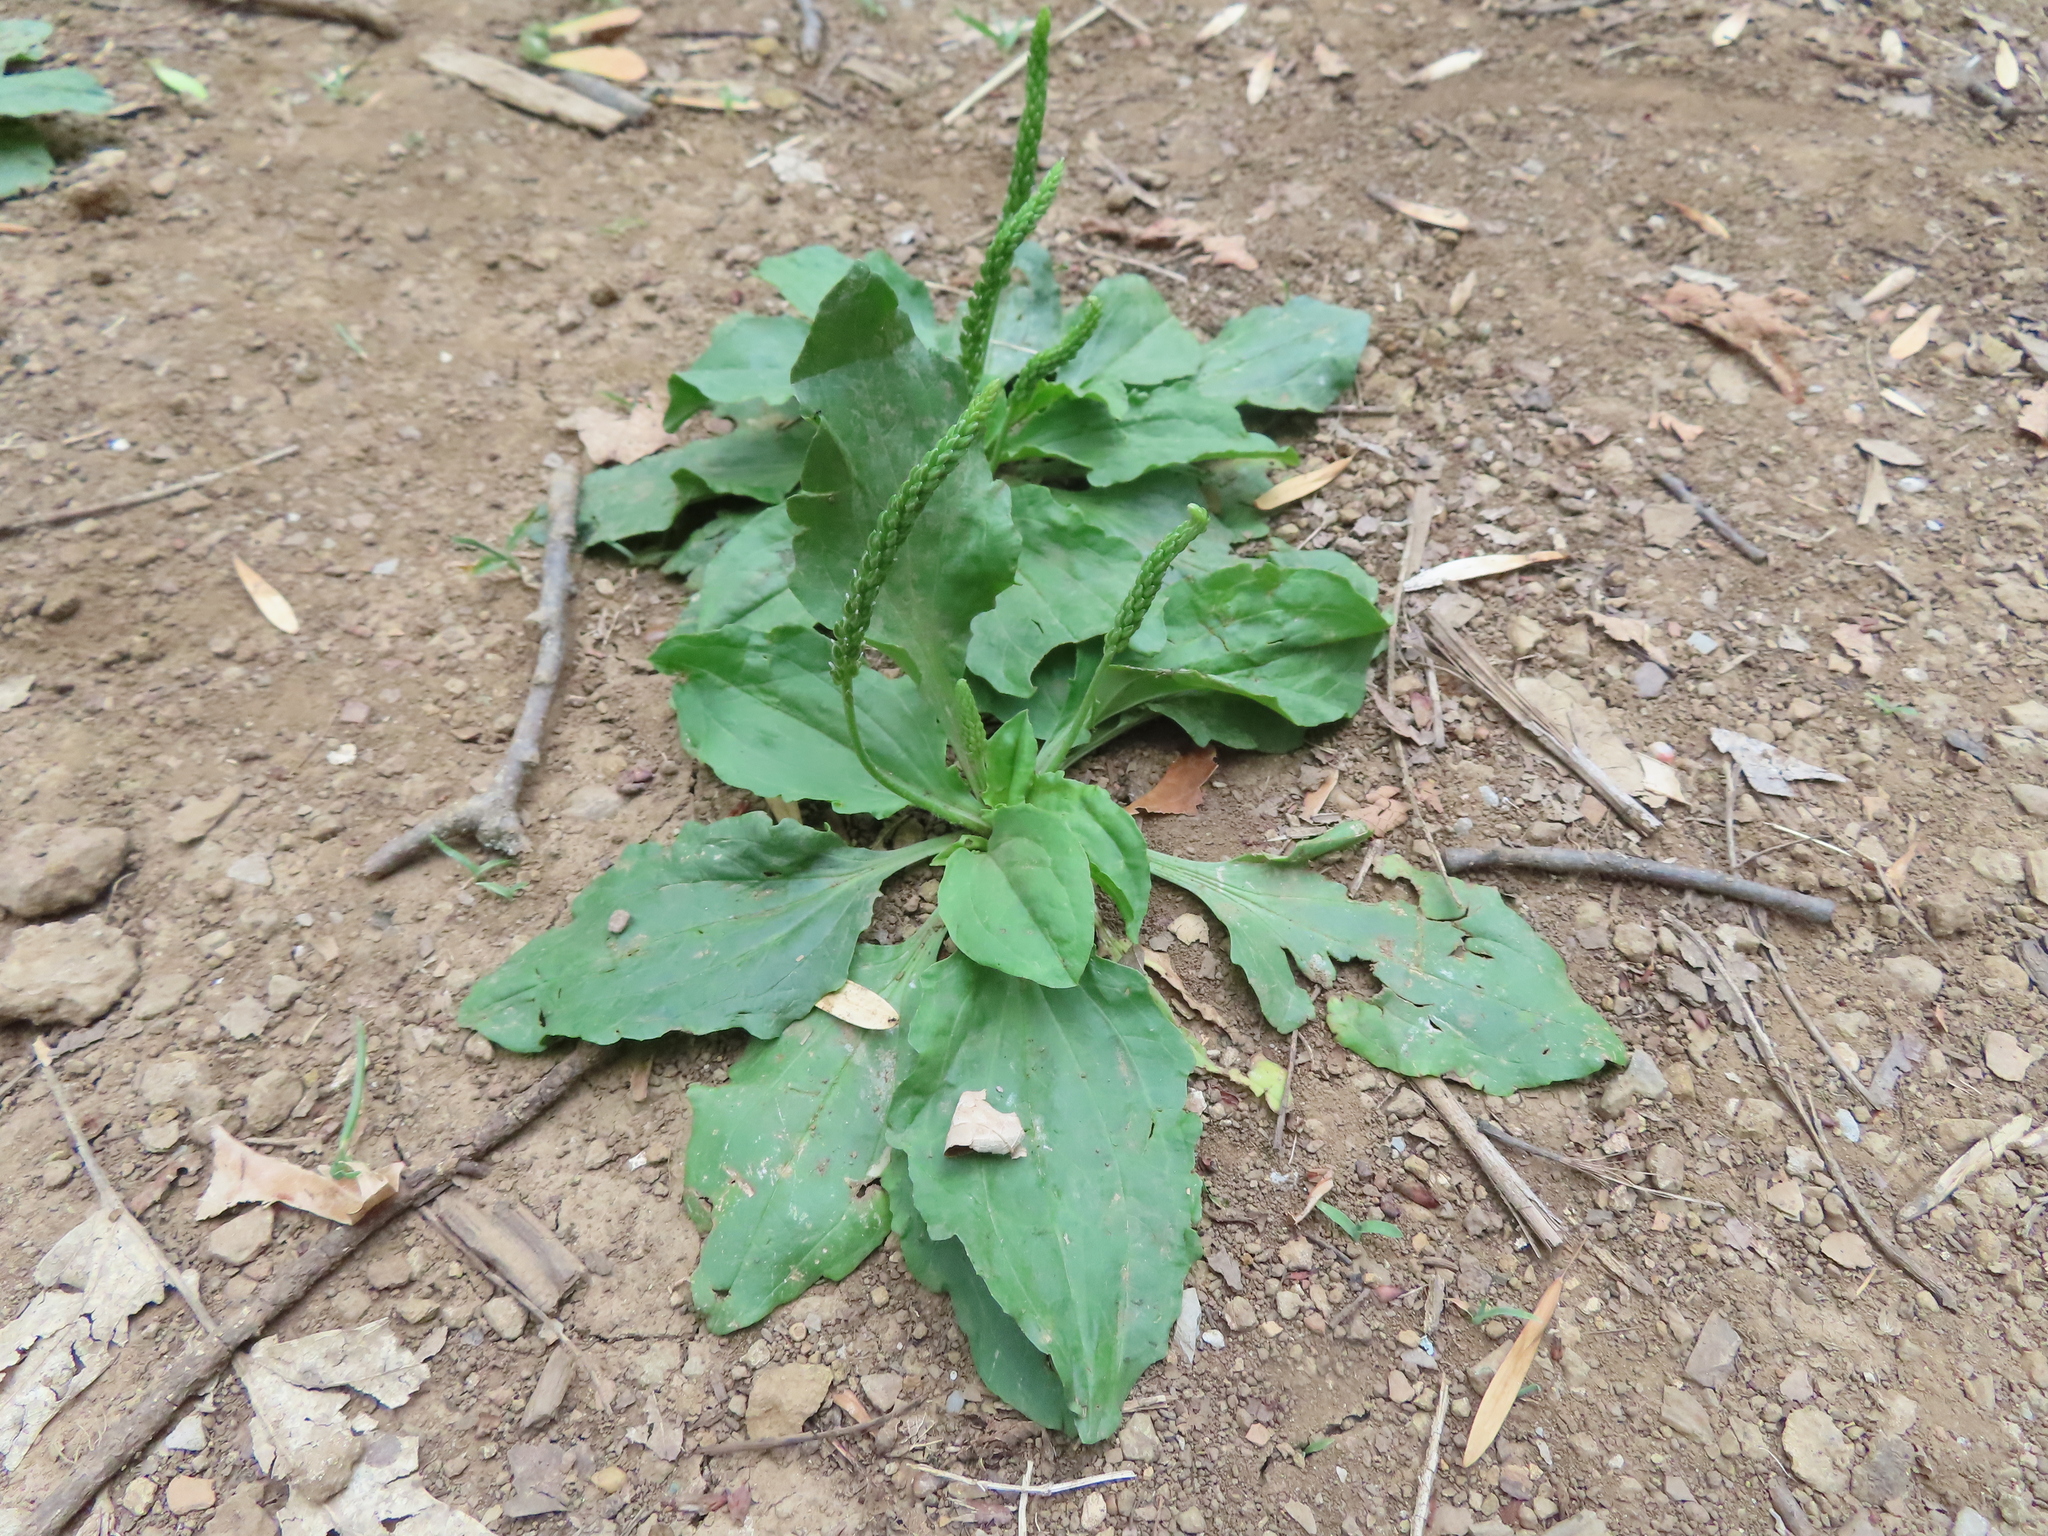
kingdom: Plantae
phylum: Tracheophyta
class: Magnoliopsida
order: Lamiales
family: Plantaginaceae
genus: Plantago
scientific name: Plantago rugelii
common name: American plantain
